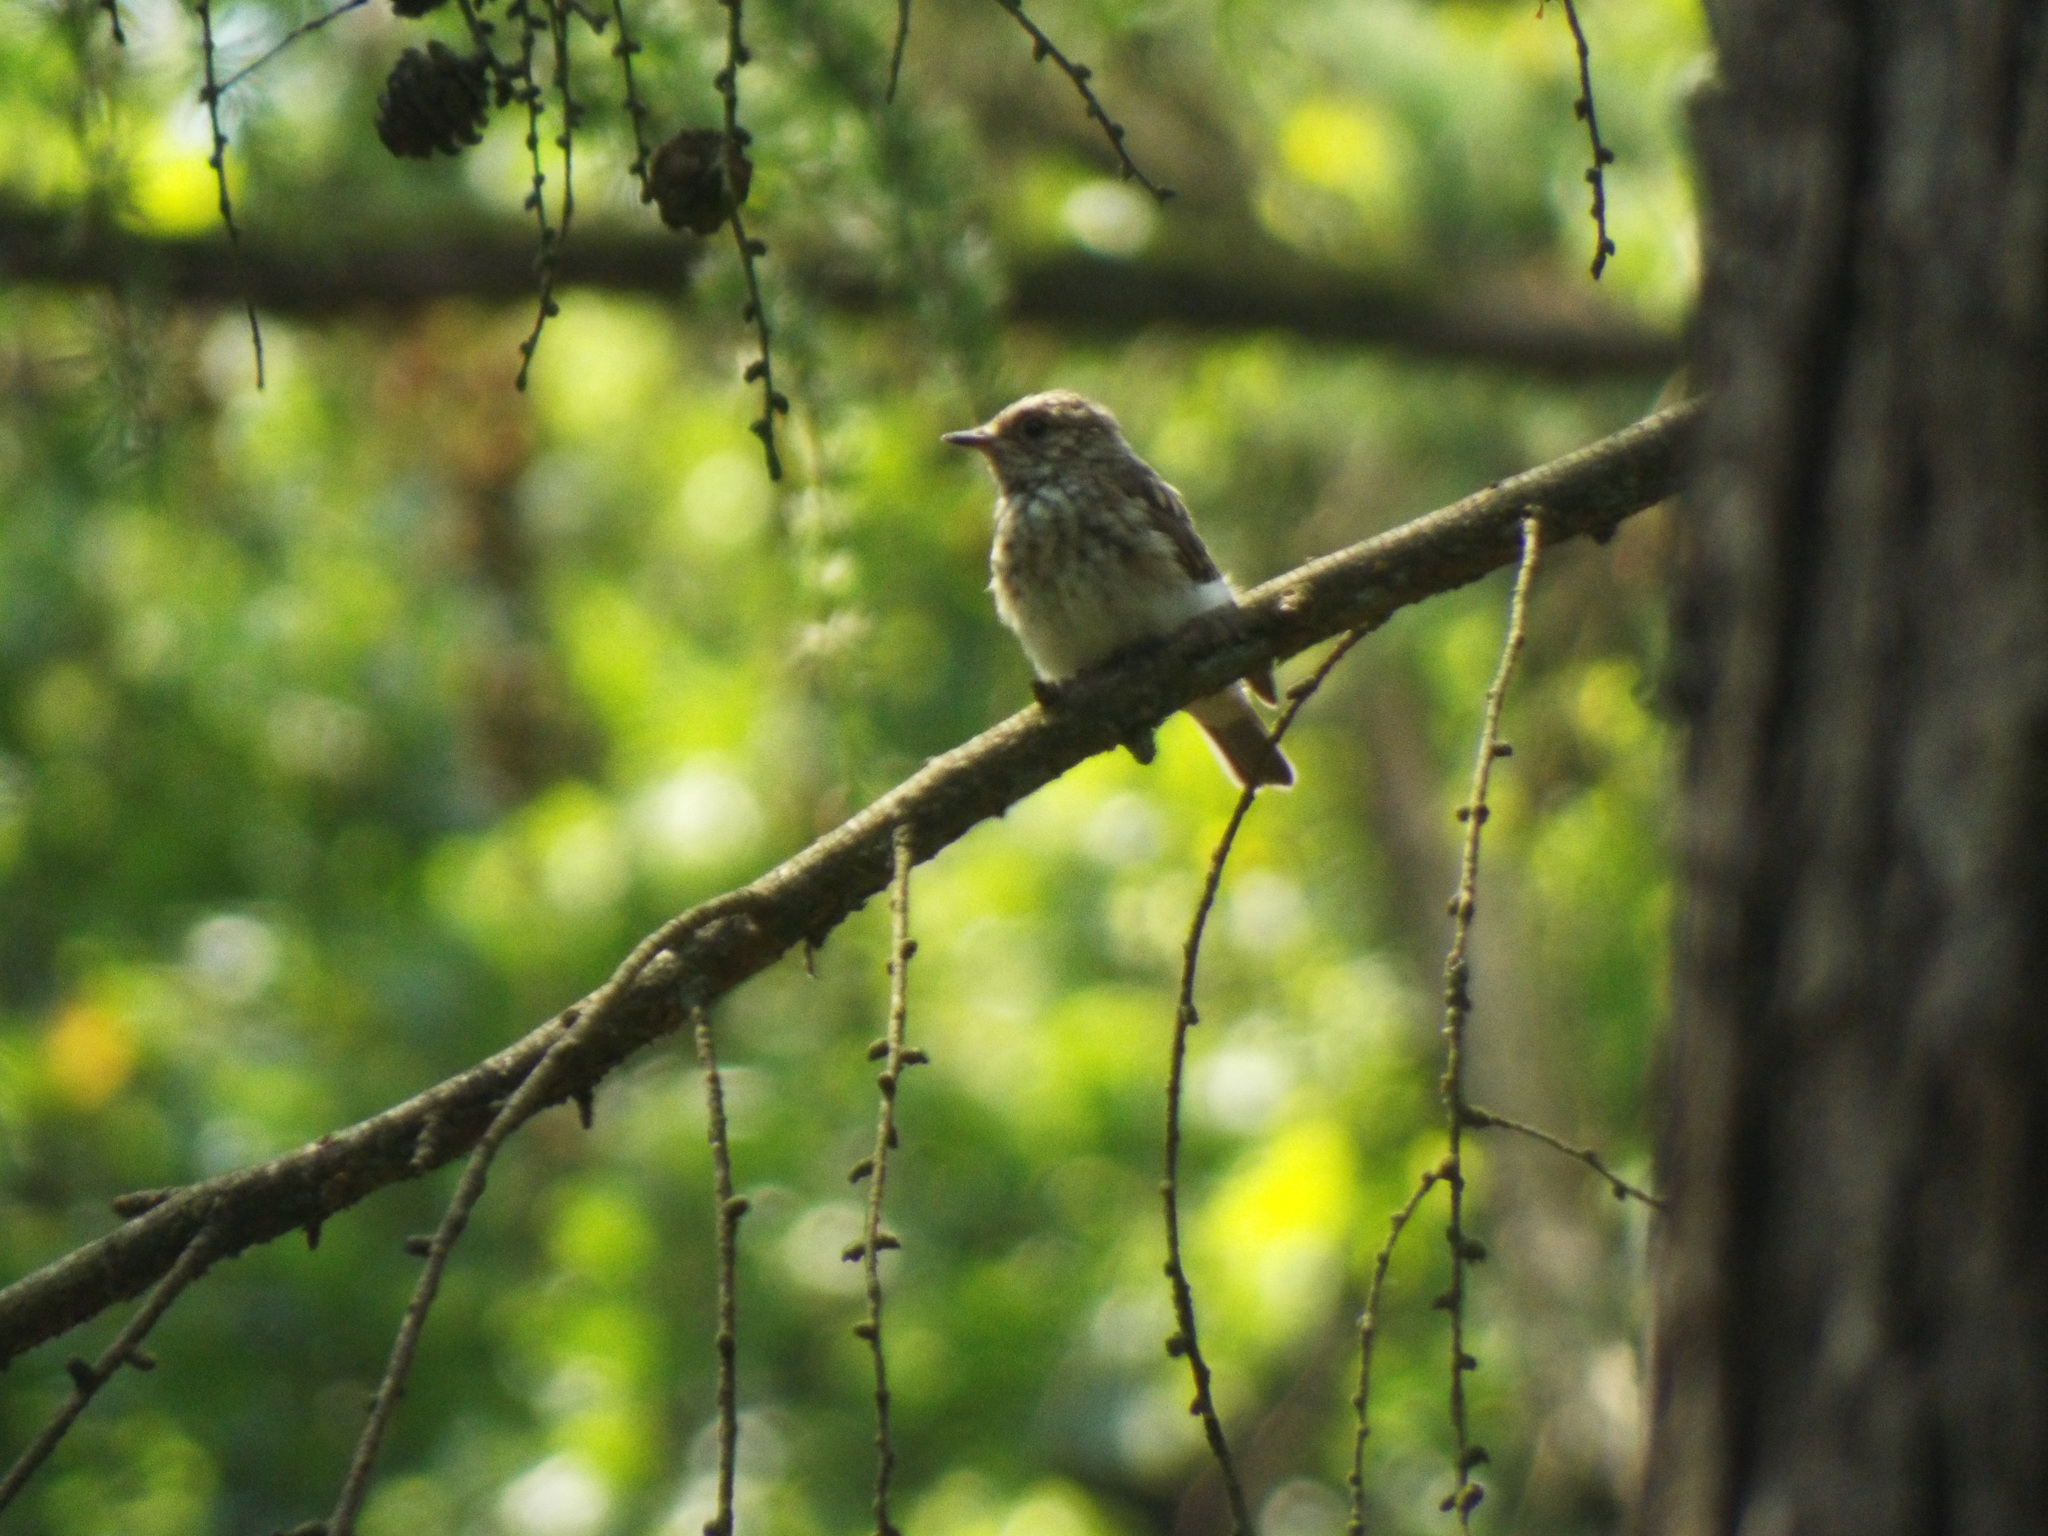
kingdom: Animalia
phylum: Chordata
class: Aves
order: Passeriformes
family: Muscicapidae
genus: Muscicapa
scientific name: Muscicapa striata
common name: Spotted flycatcher
